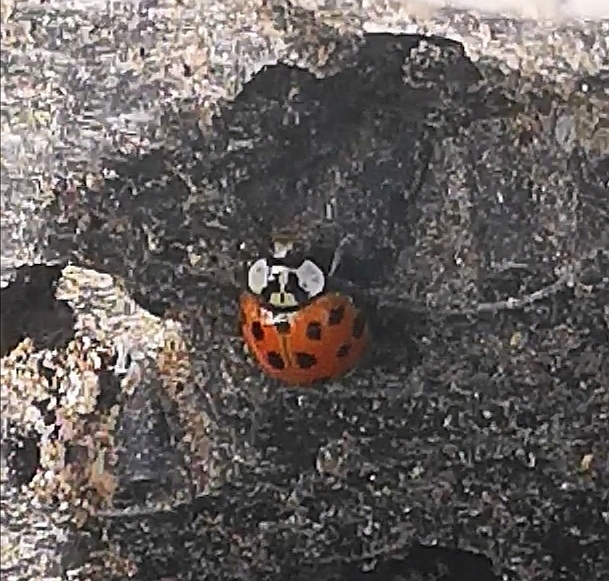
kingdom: Animalia
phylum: Arthropoda
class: Insecta
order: Coleoptera
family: Coccinellidae
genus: Harmonia
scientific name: Harmonia axyridis
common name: Harlequin ladybird
